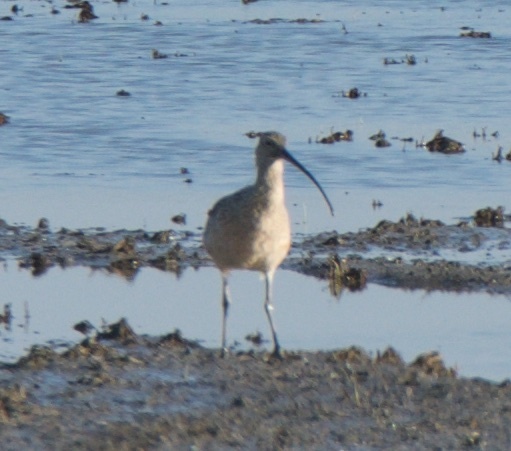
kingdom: Animalia
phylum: Chordata
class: Aves
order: Charadriiformes
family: Scolopacidae
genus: Numenius
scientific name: Numenius americanus
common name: Long-billed curlew
